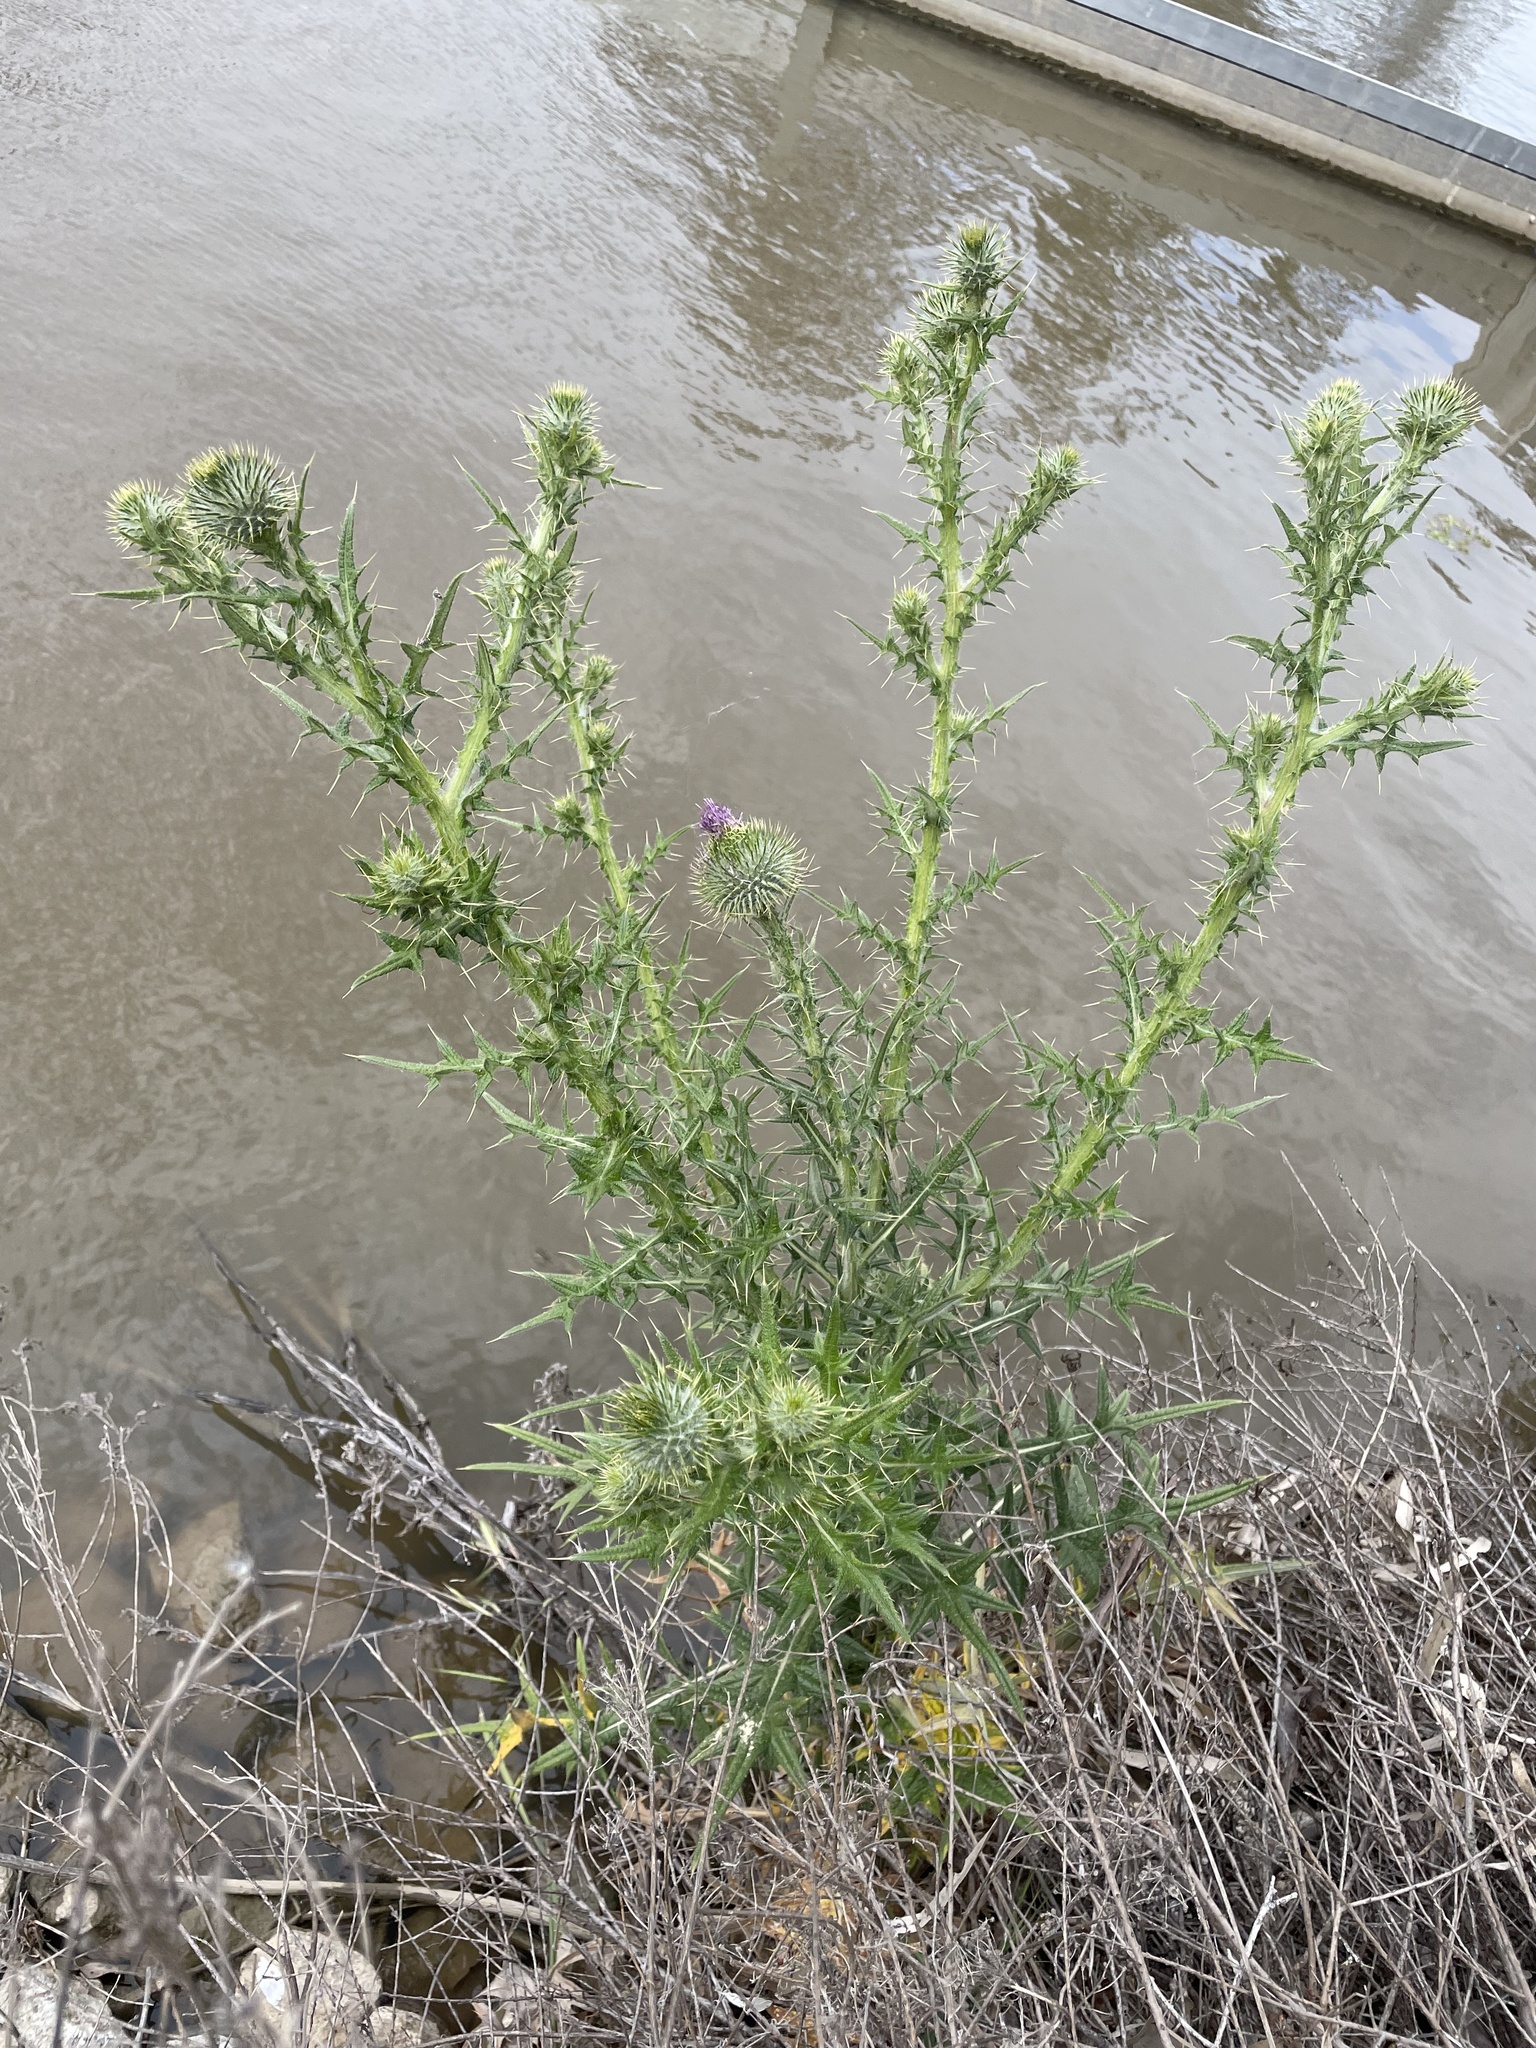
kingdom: Plantae
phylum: Tracheophyta
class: Magnoliopsida
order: Asterales
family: Asteraceae
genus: Cirsium
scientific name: Cirsium vulgare
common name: Bull thistle
